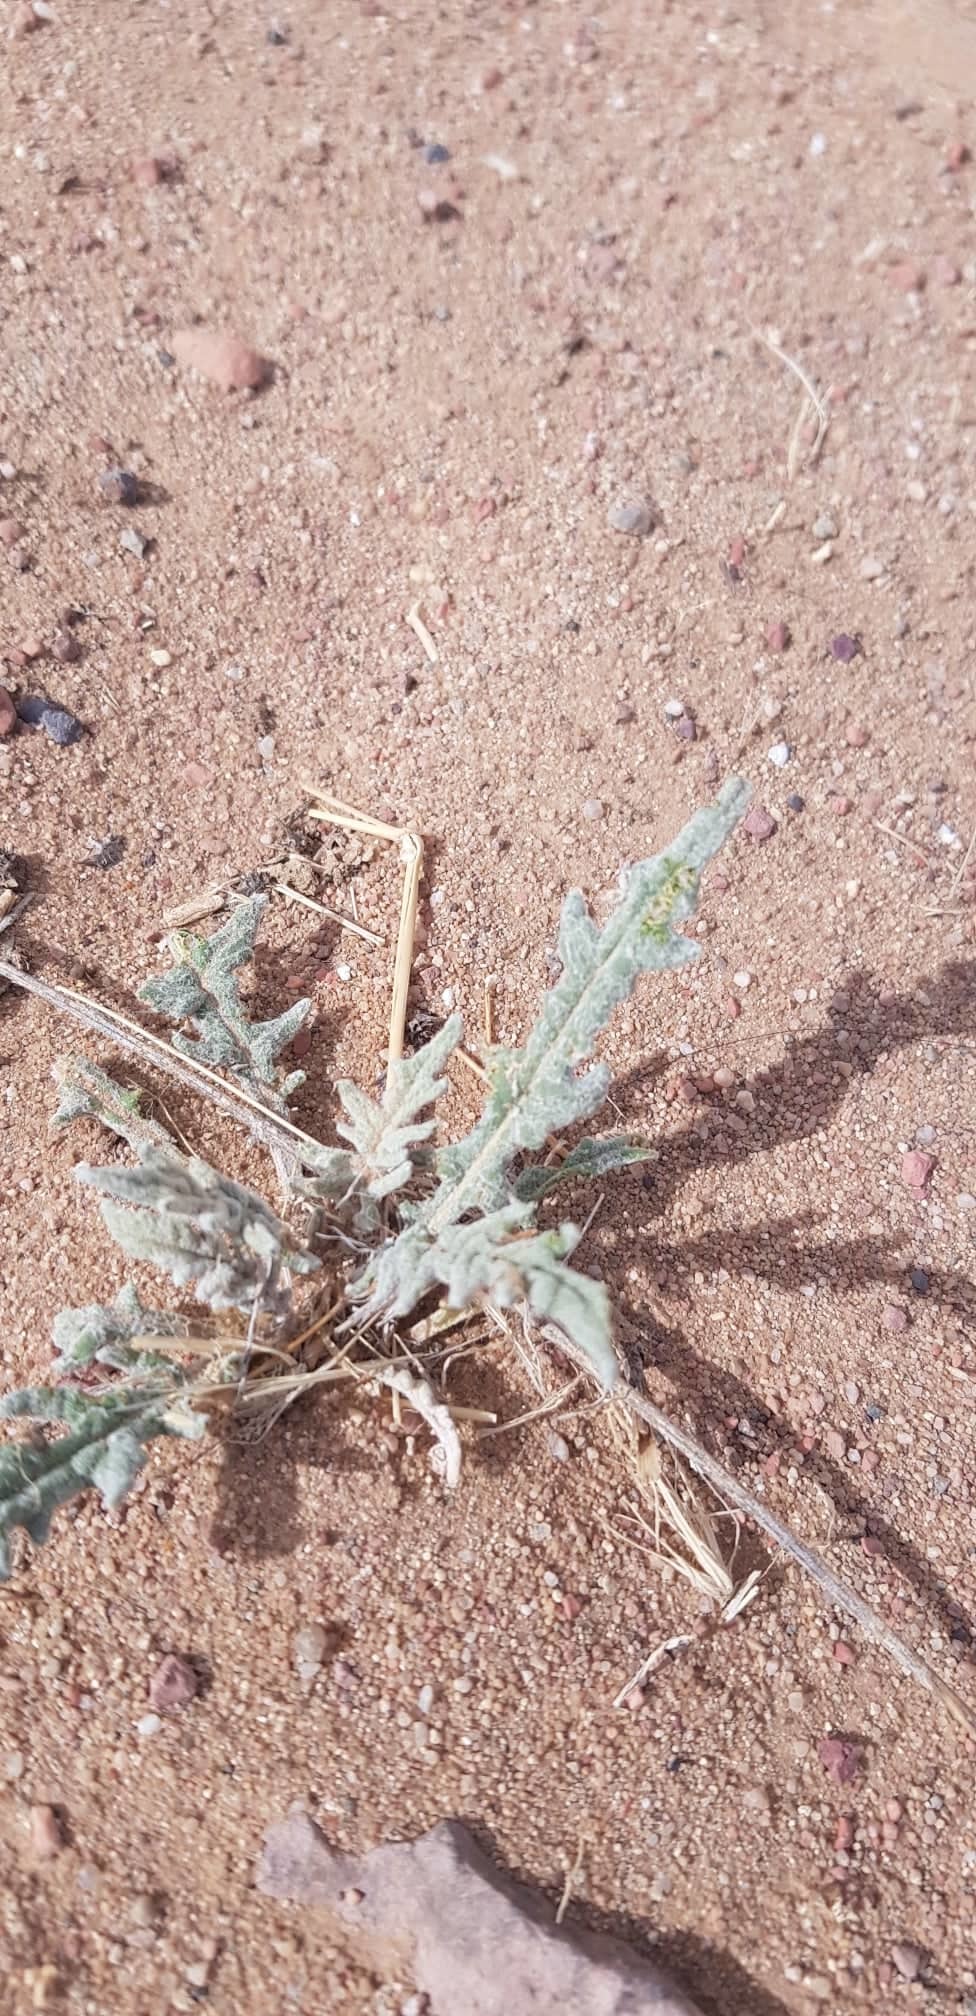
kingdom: Plantae
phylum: Tracheophyta
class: Magnoliopsida
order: Fabales
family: Fabaceae
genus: Chesneya
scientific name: Chesneya mongolica
